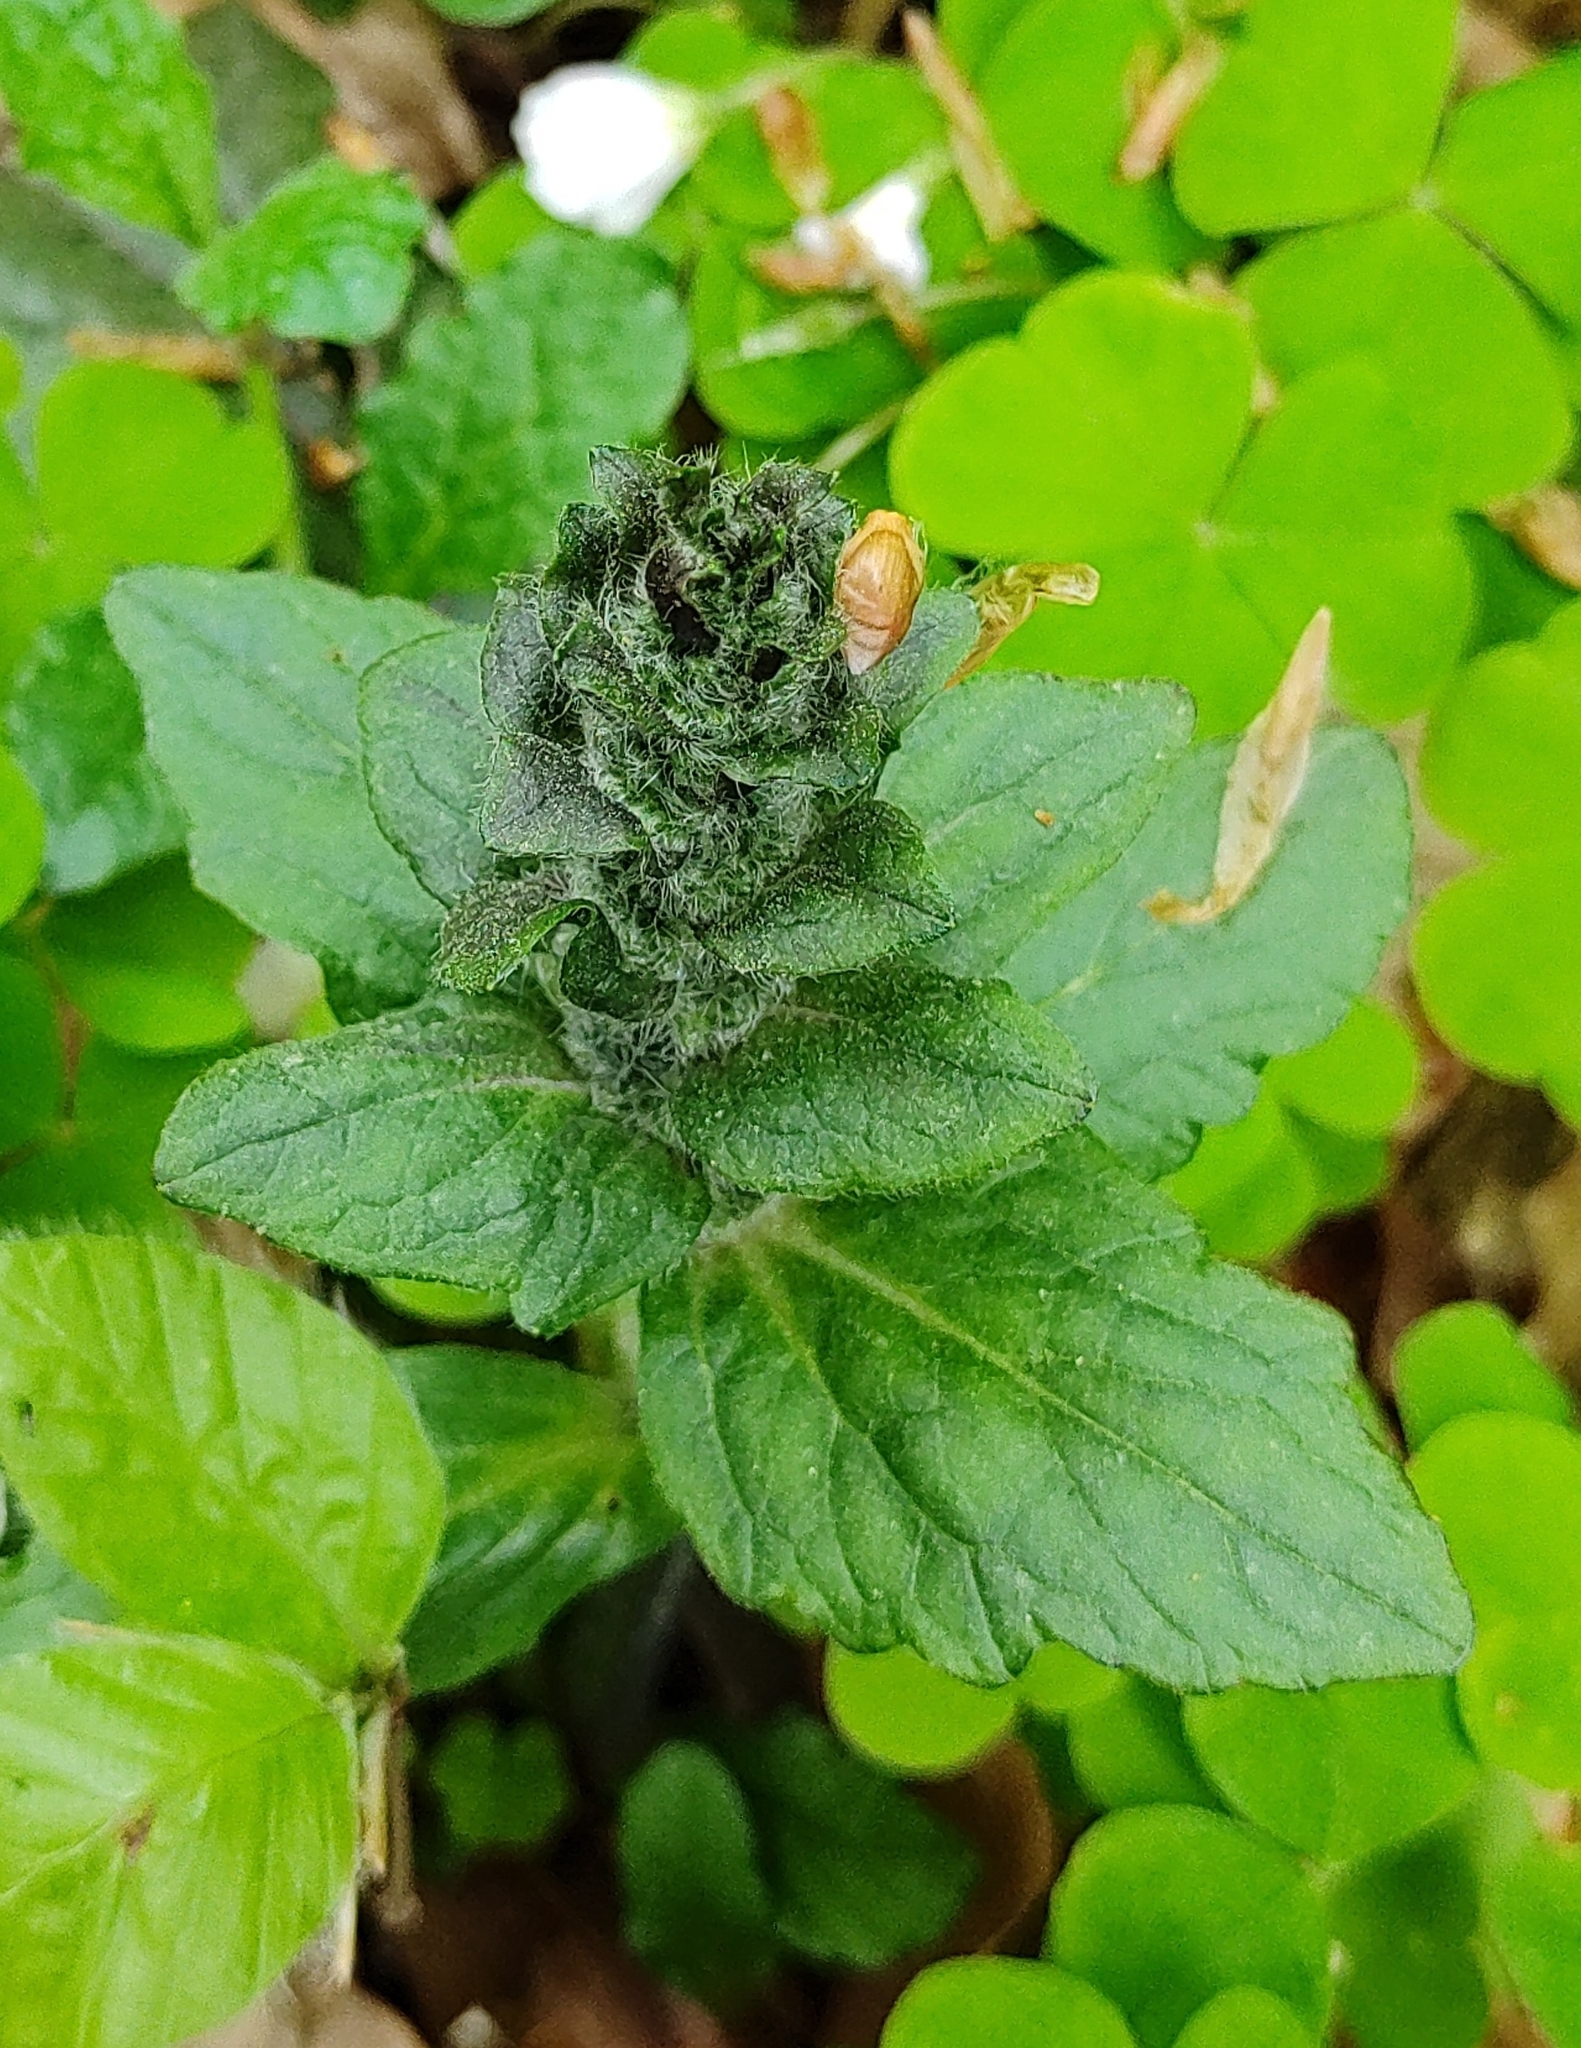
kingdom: Plantae
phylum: Tracheophyta
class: Magnoliopsida
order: Lamiales
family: Lamiaceae
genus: Ajuga
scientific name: Ajuga reptans
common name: Bugle
